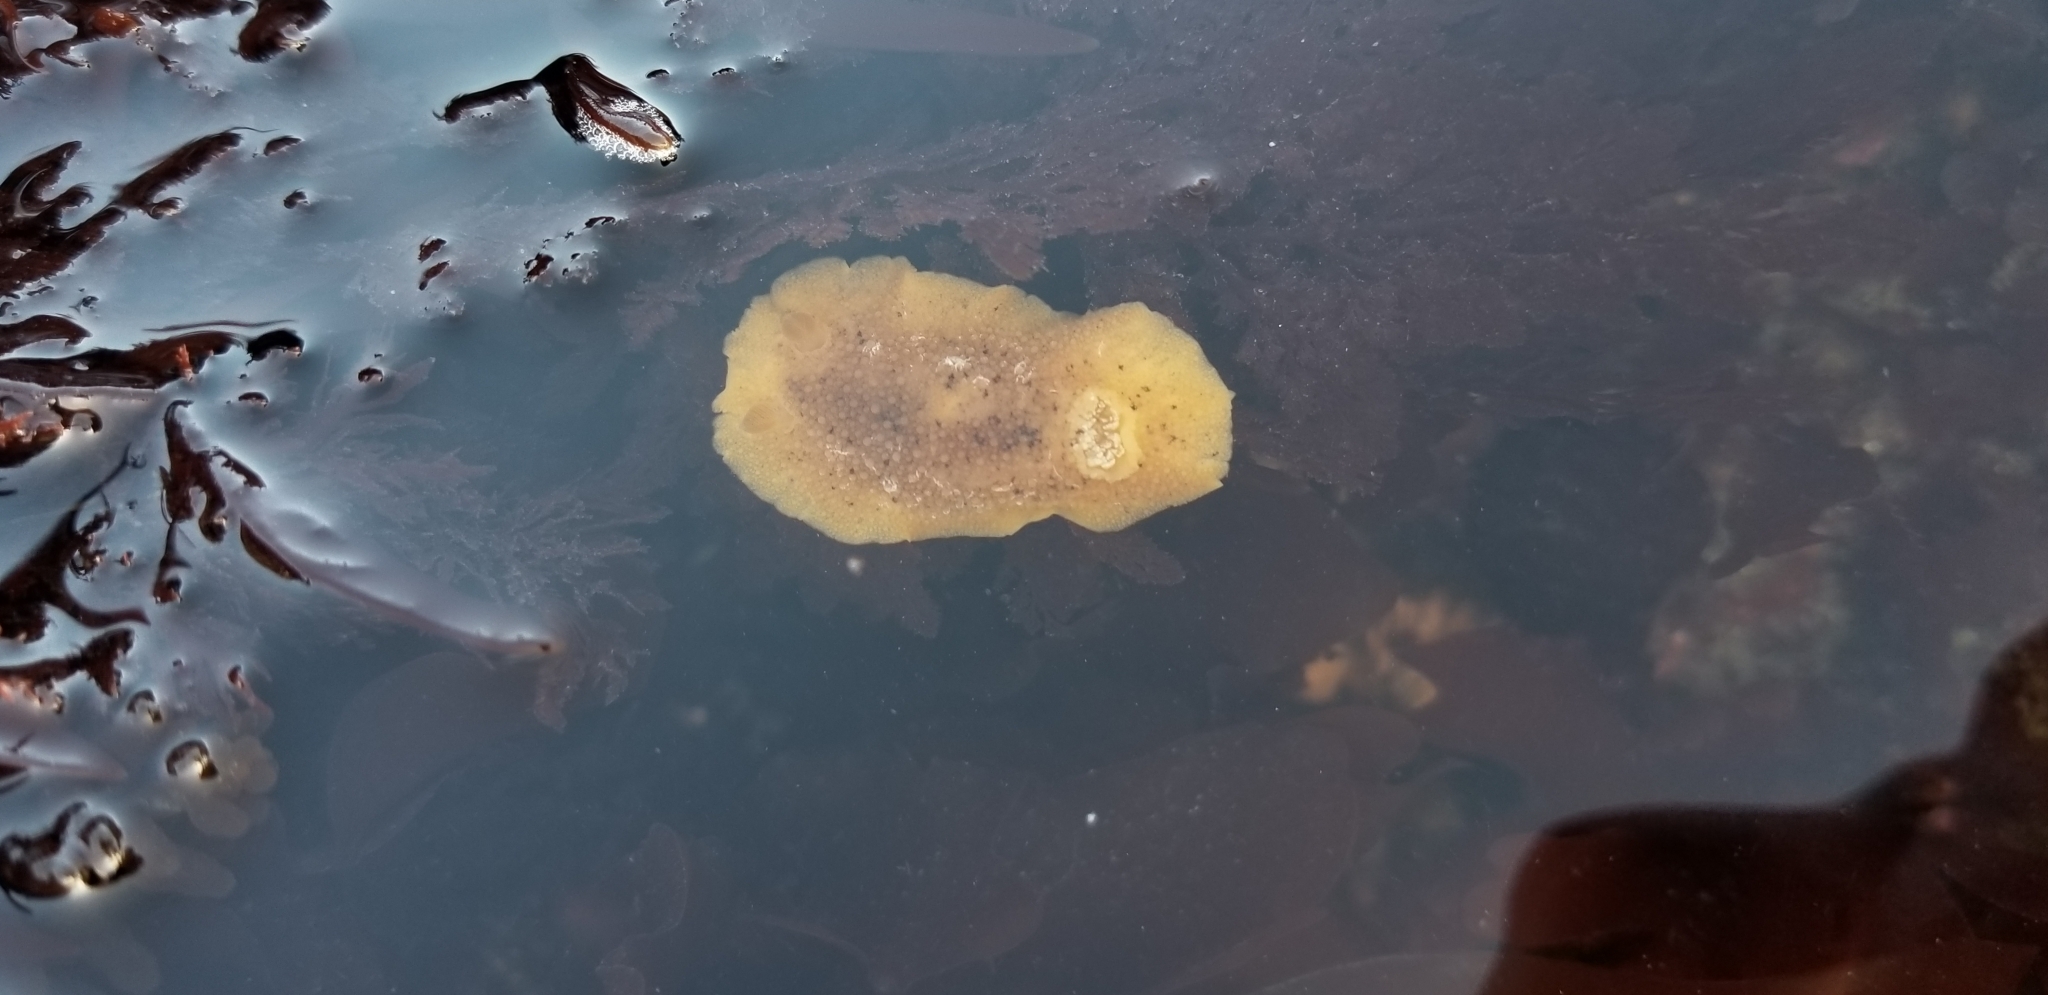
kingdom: Animalia
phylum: Mollusca
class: Gastropoda
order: Nudibranchia
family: Discodorididae
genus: Geitodoris
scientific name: Geitodoris heathi
